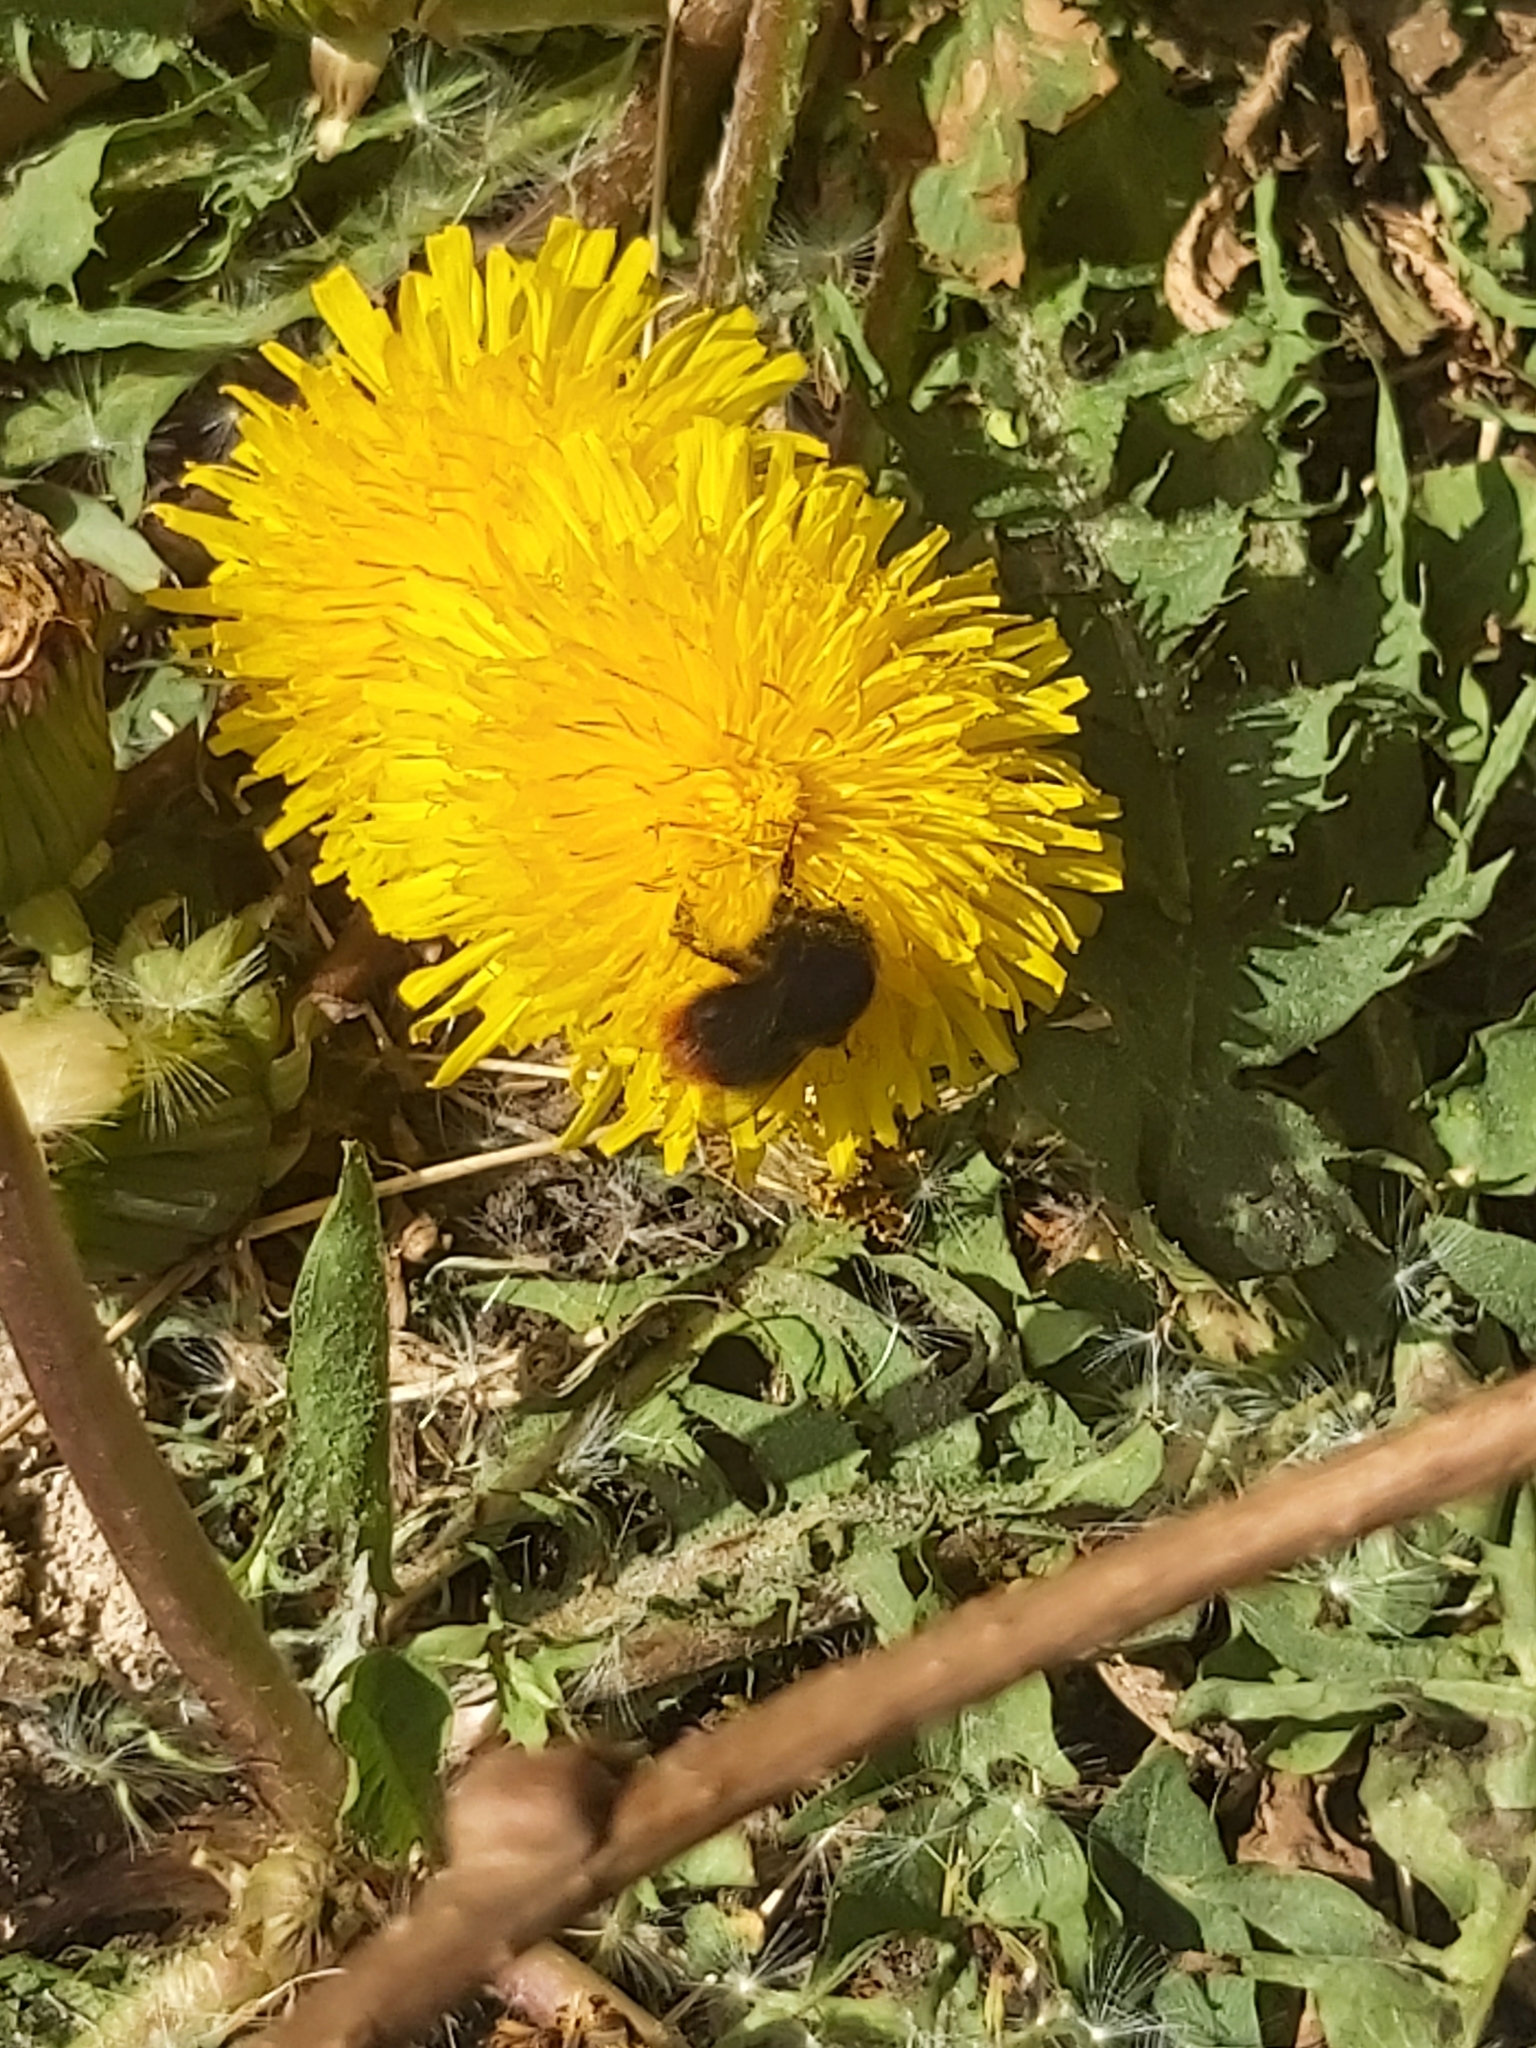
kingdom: Animalia
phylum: Arthropoda
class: Insecta
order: Hymenoptera
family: Apidae
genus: Bombus
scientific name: Bombus lapidarius
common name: Large red-tailed humble-bee
